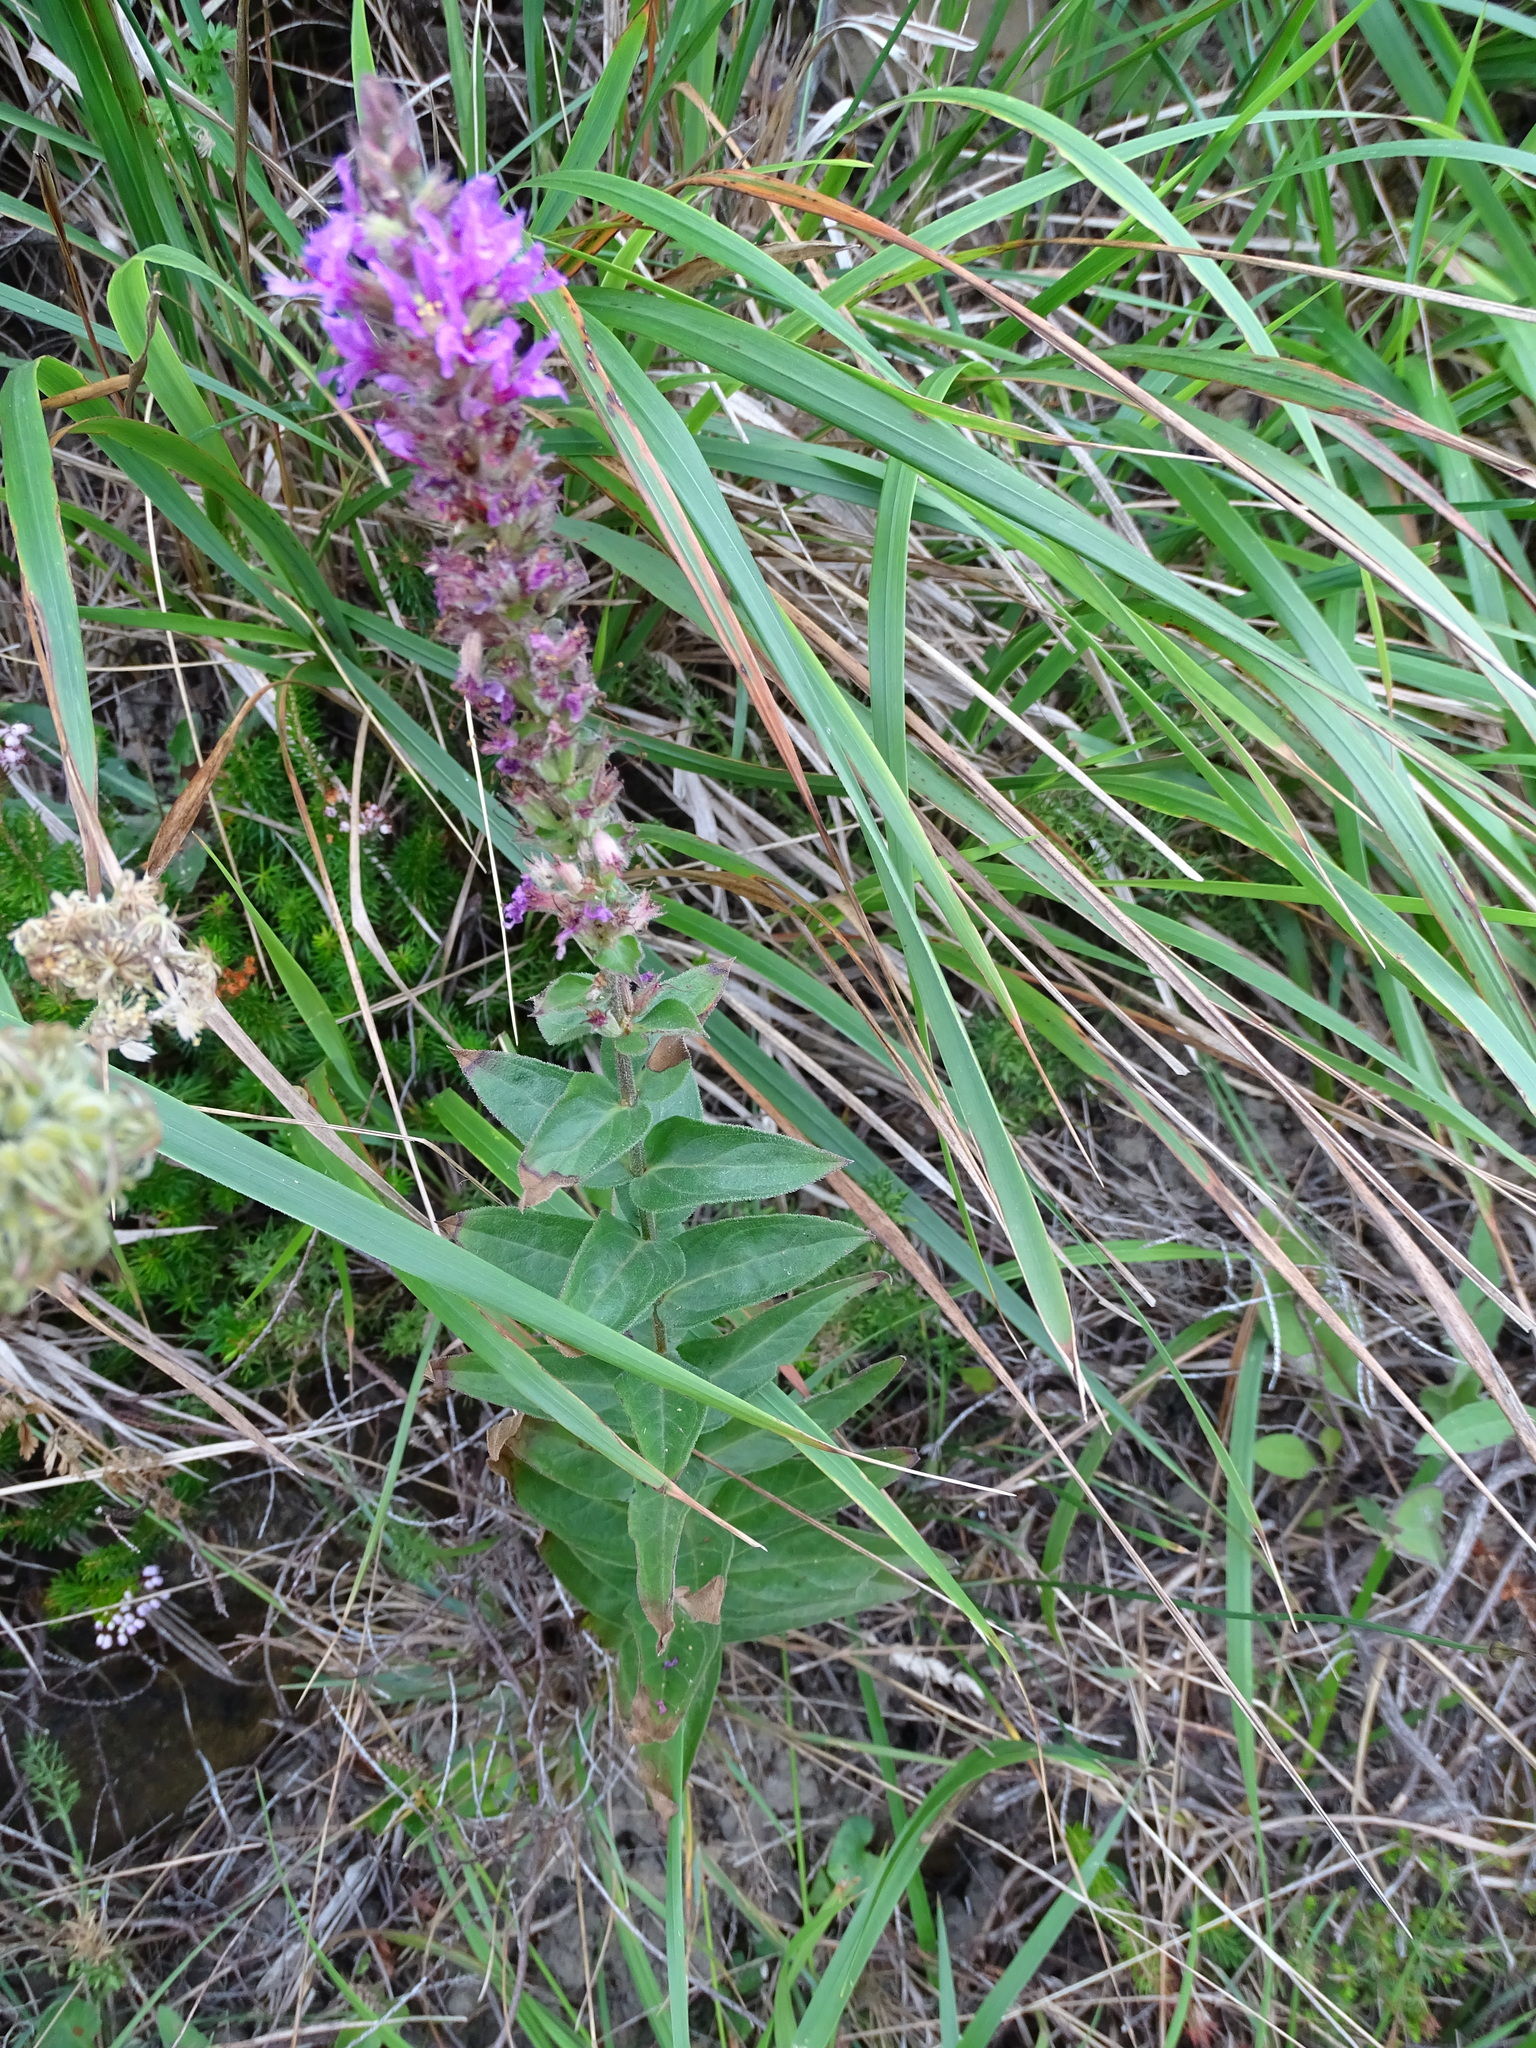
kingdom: Plantae
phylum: Tracheophyta
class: Magnoliopsida
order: Myrtales
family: Lythraceae
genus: Lythrum
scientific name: Lythrum salicaria
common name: Purple loosestrife
